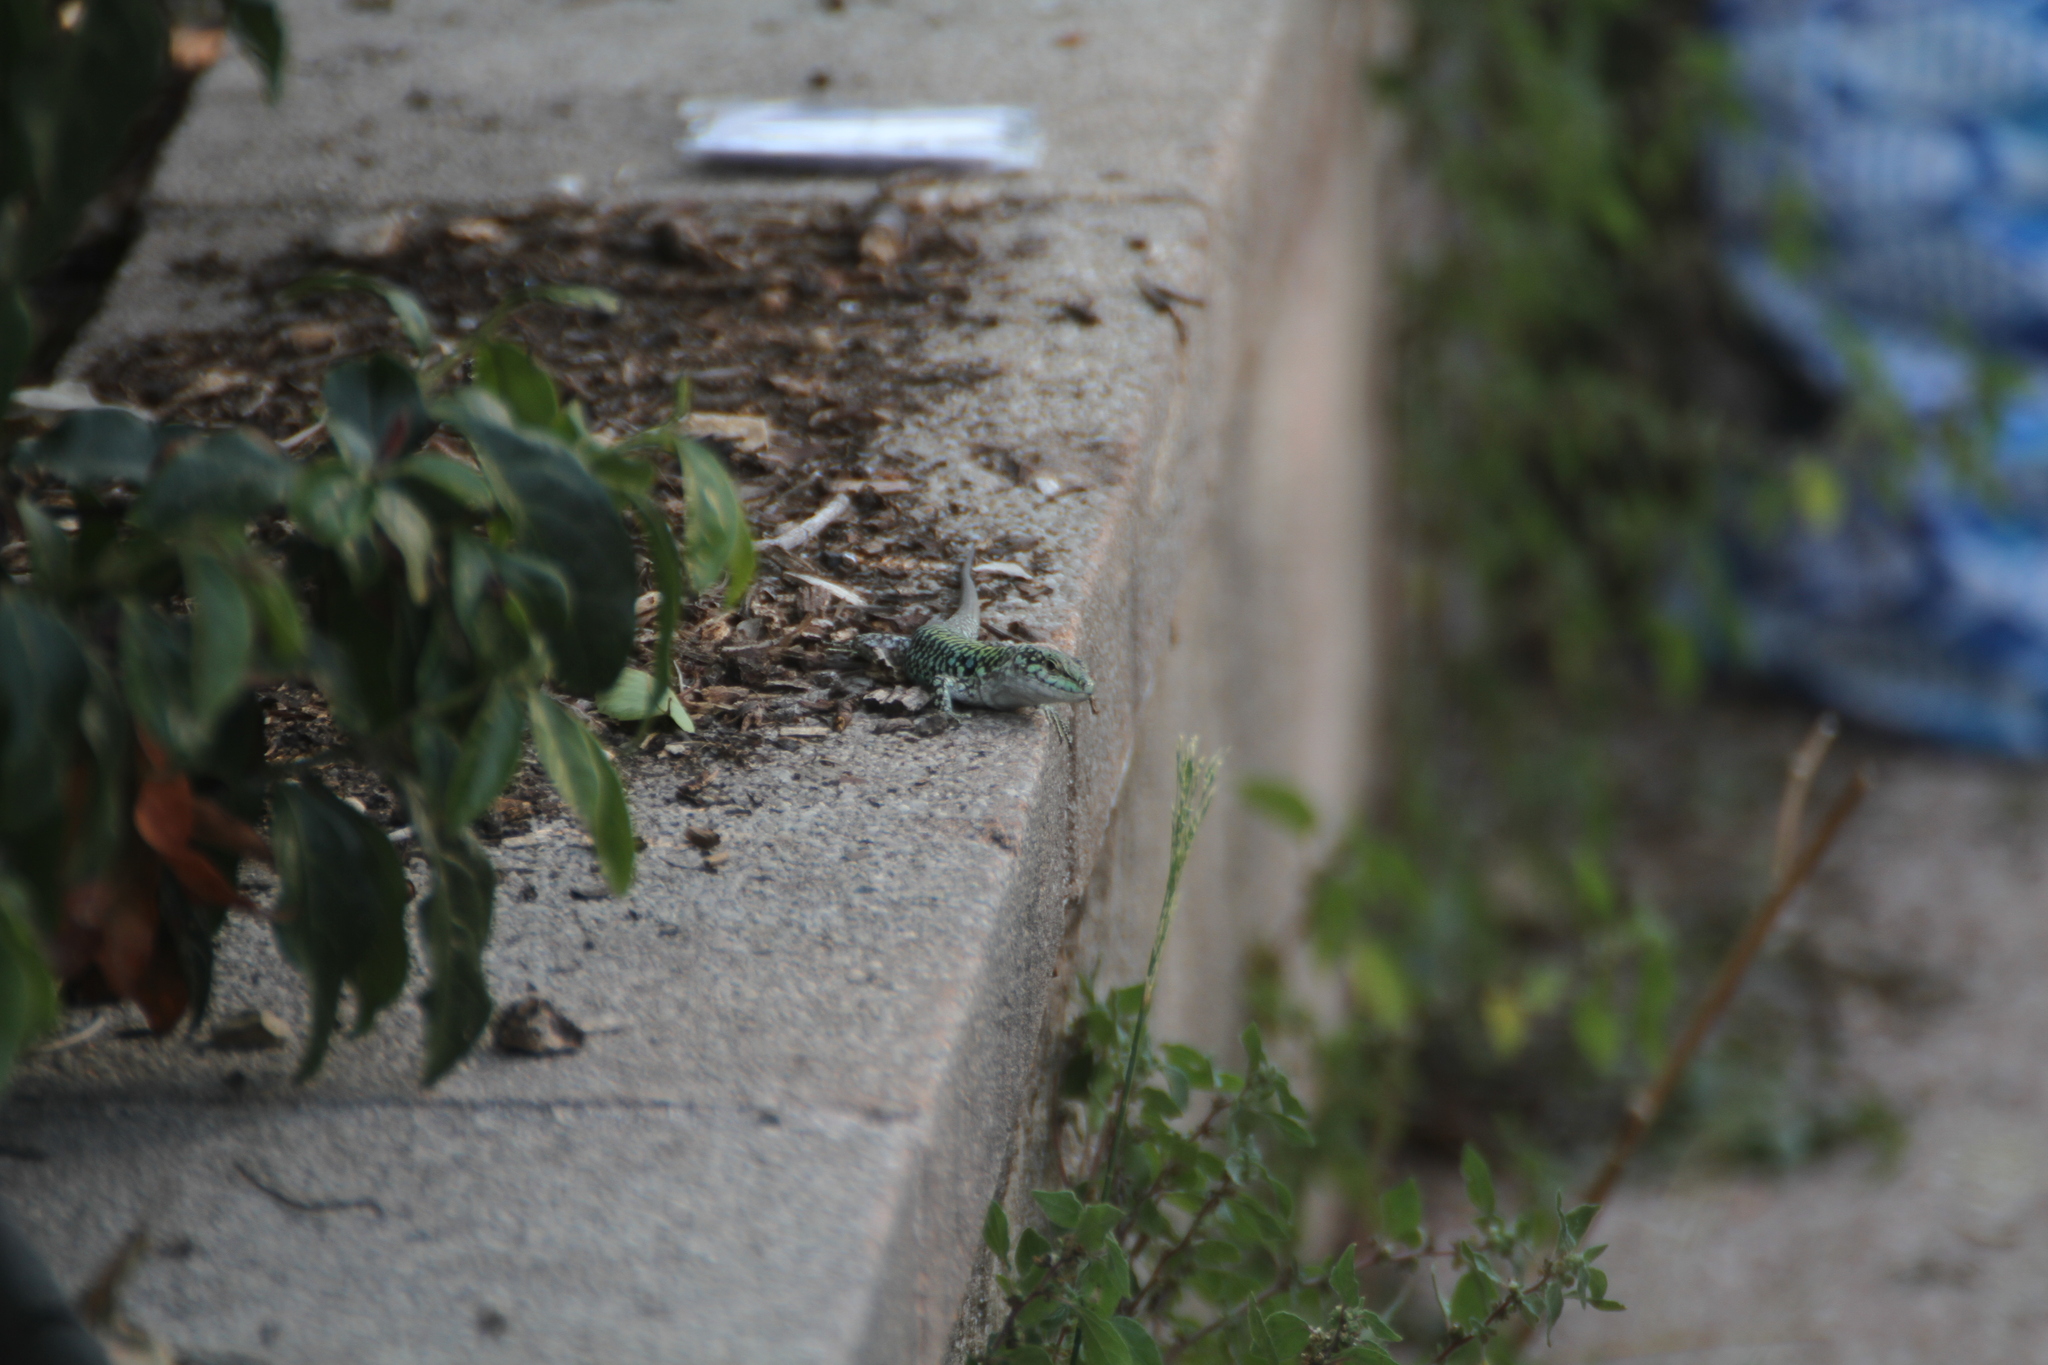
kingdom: Animalia
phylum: Chordata
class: Squamata
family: Lacertidae
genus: Podarcis
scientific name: Podarcis siculus
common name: Italian wall lizard
